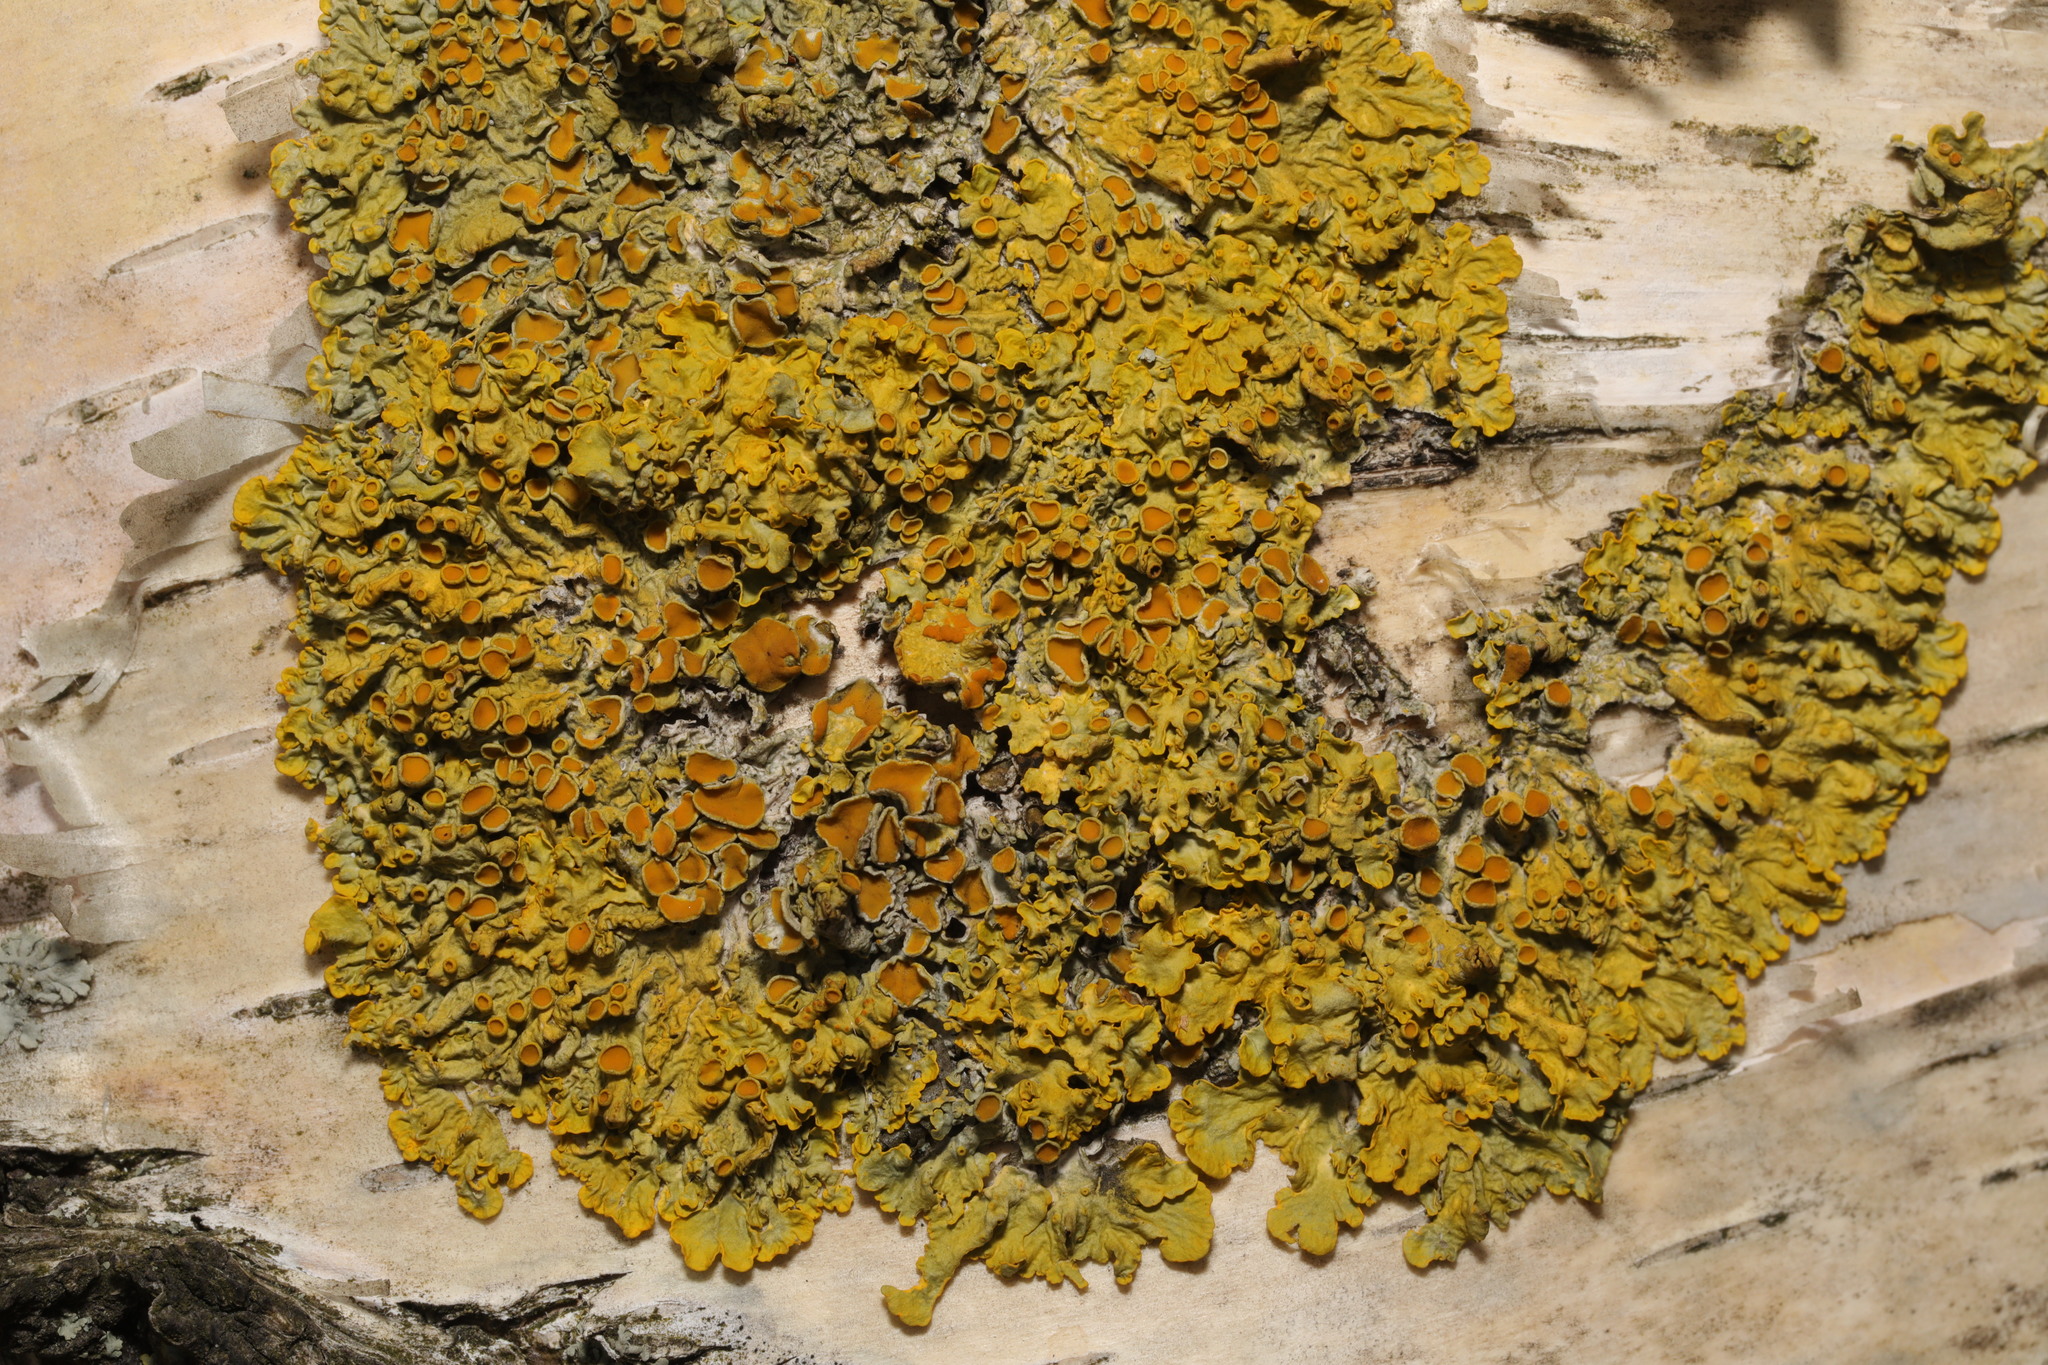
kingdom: Fungi
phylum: Ascomycota
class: Lecanoromycetes
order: Teloschistales
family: Teloschistaceae
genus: Xanthoria
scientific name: Xanthoria parietina
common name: Common orange lichen
